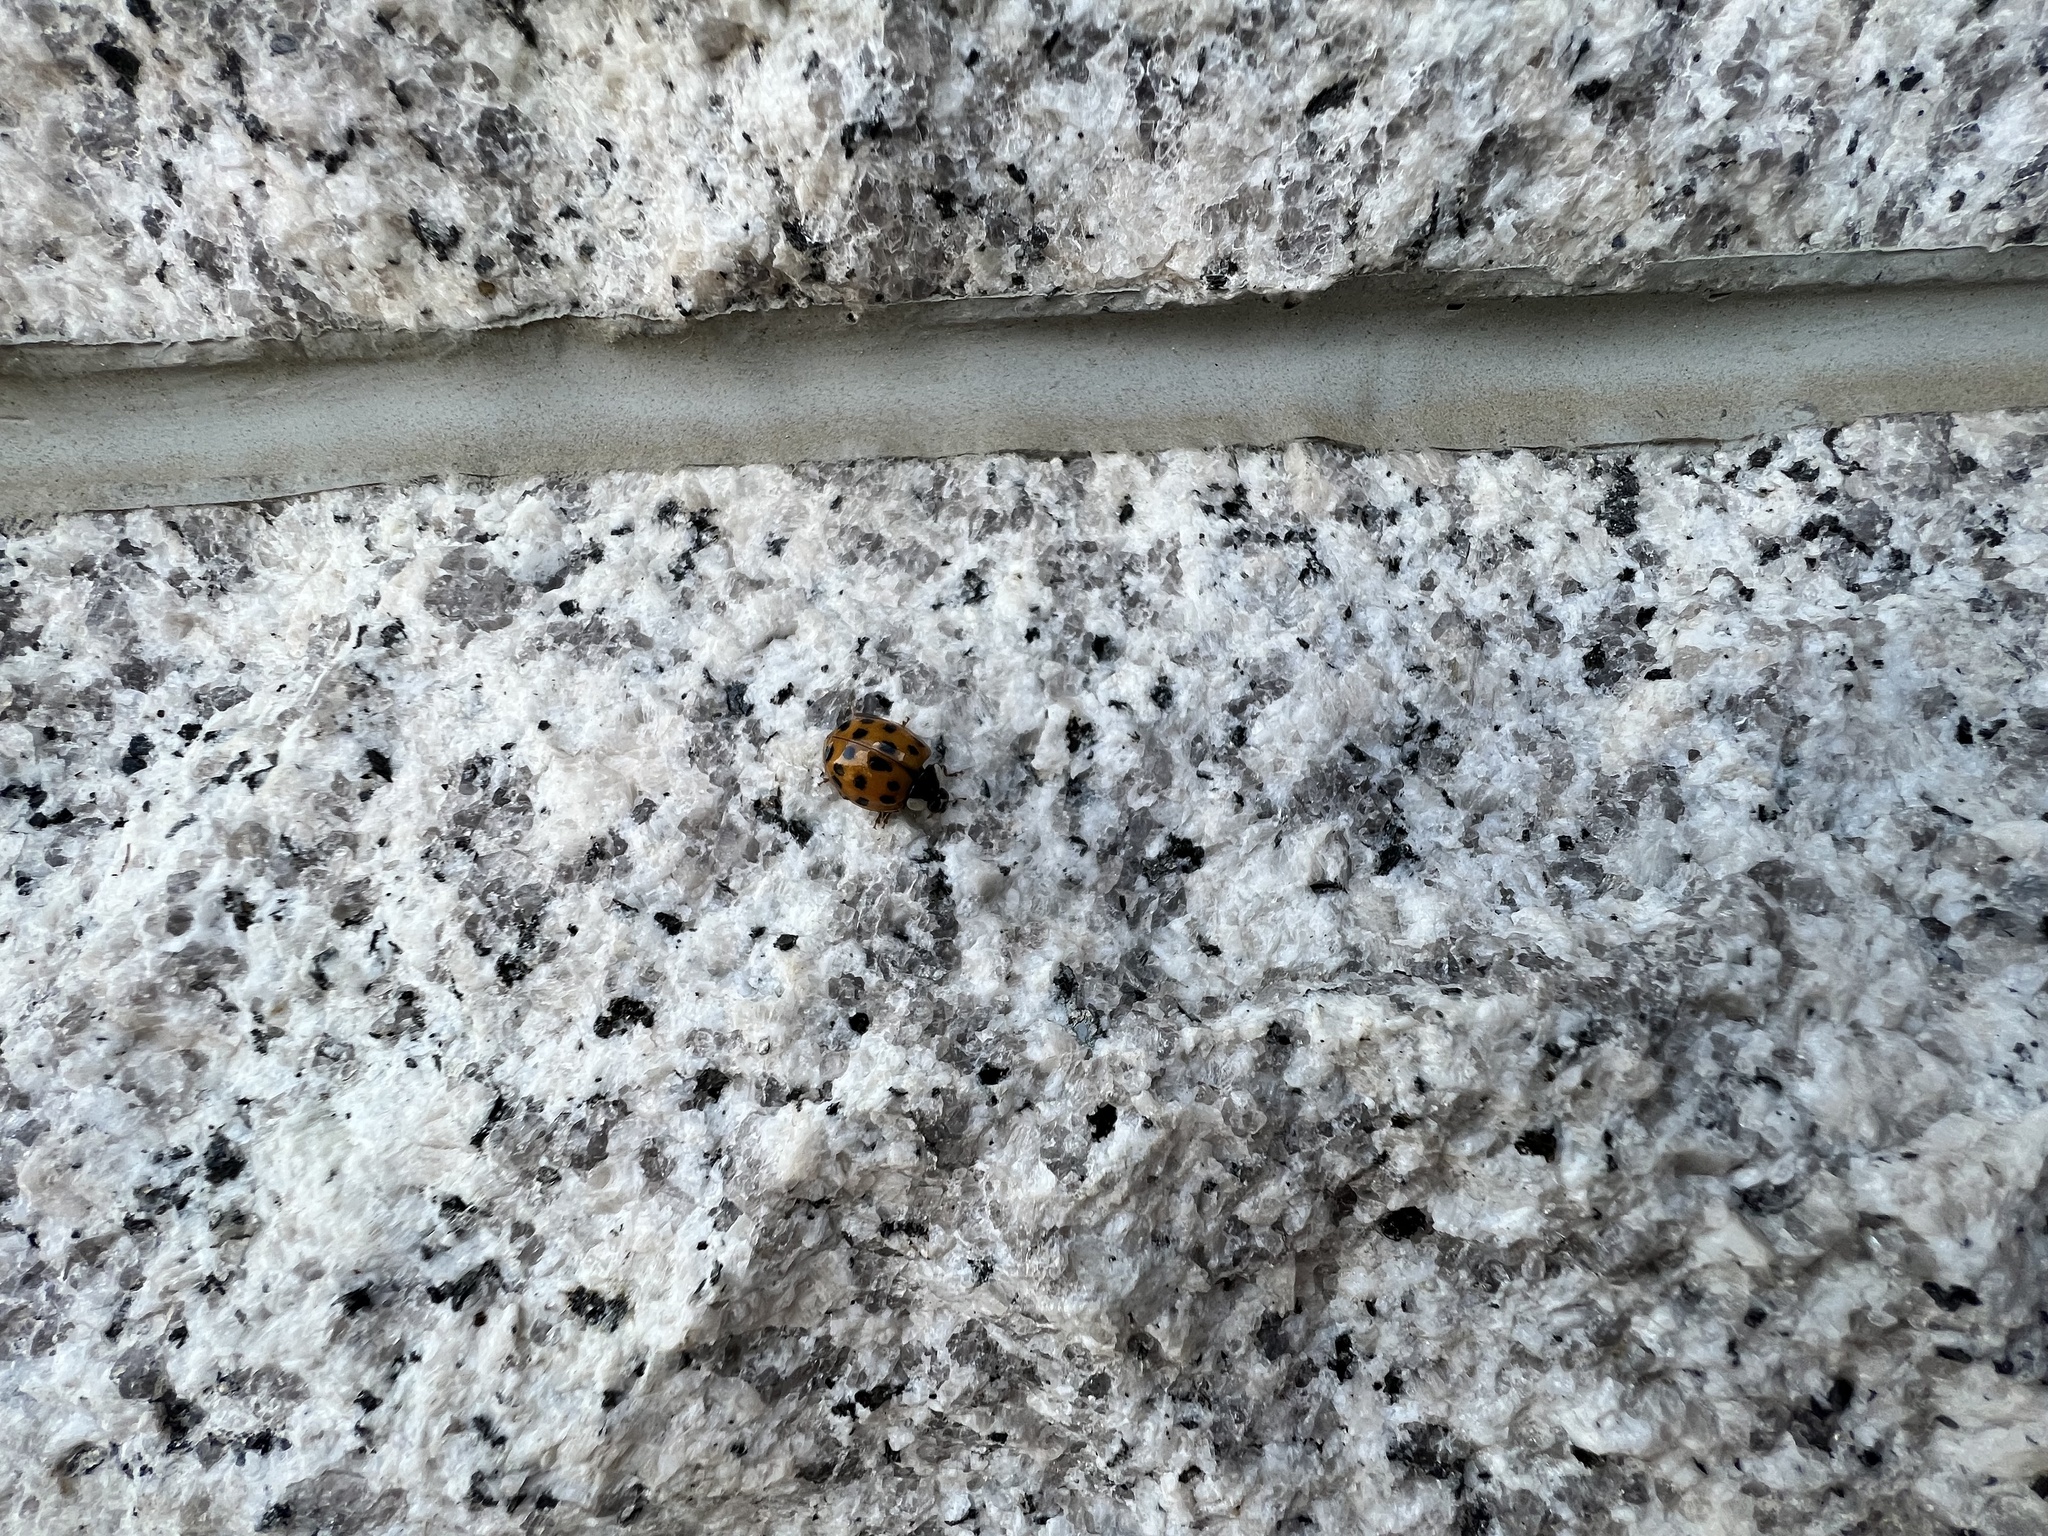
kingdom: Animalia
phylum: Arthropoda
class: Insecta
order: Coleoptera
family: Coccinellidae
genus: Harmonia
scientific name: Harmonia axyridis
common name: Harlequin ladybird
